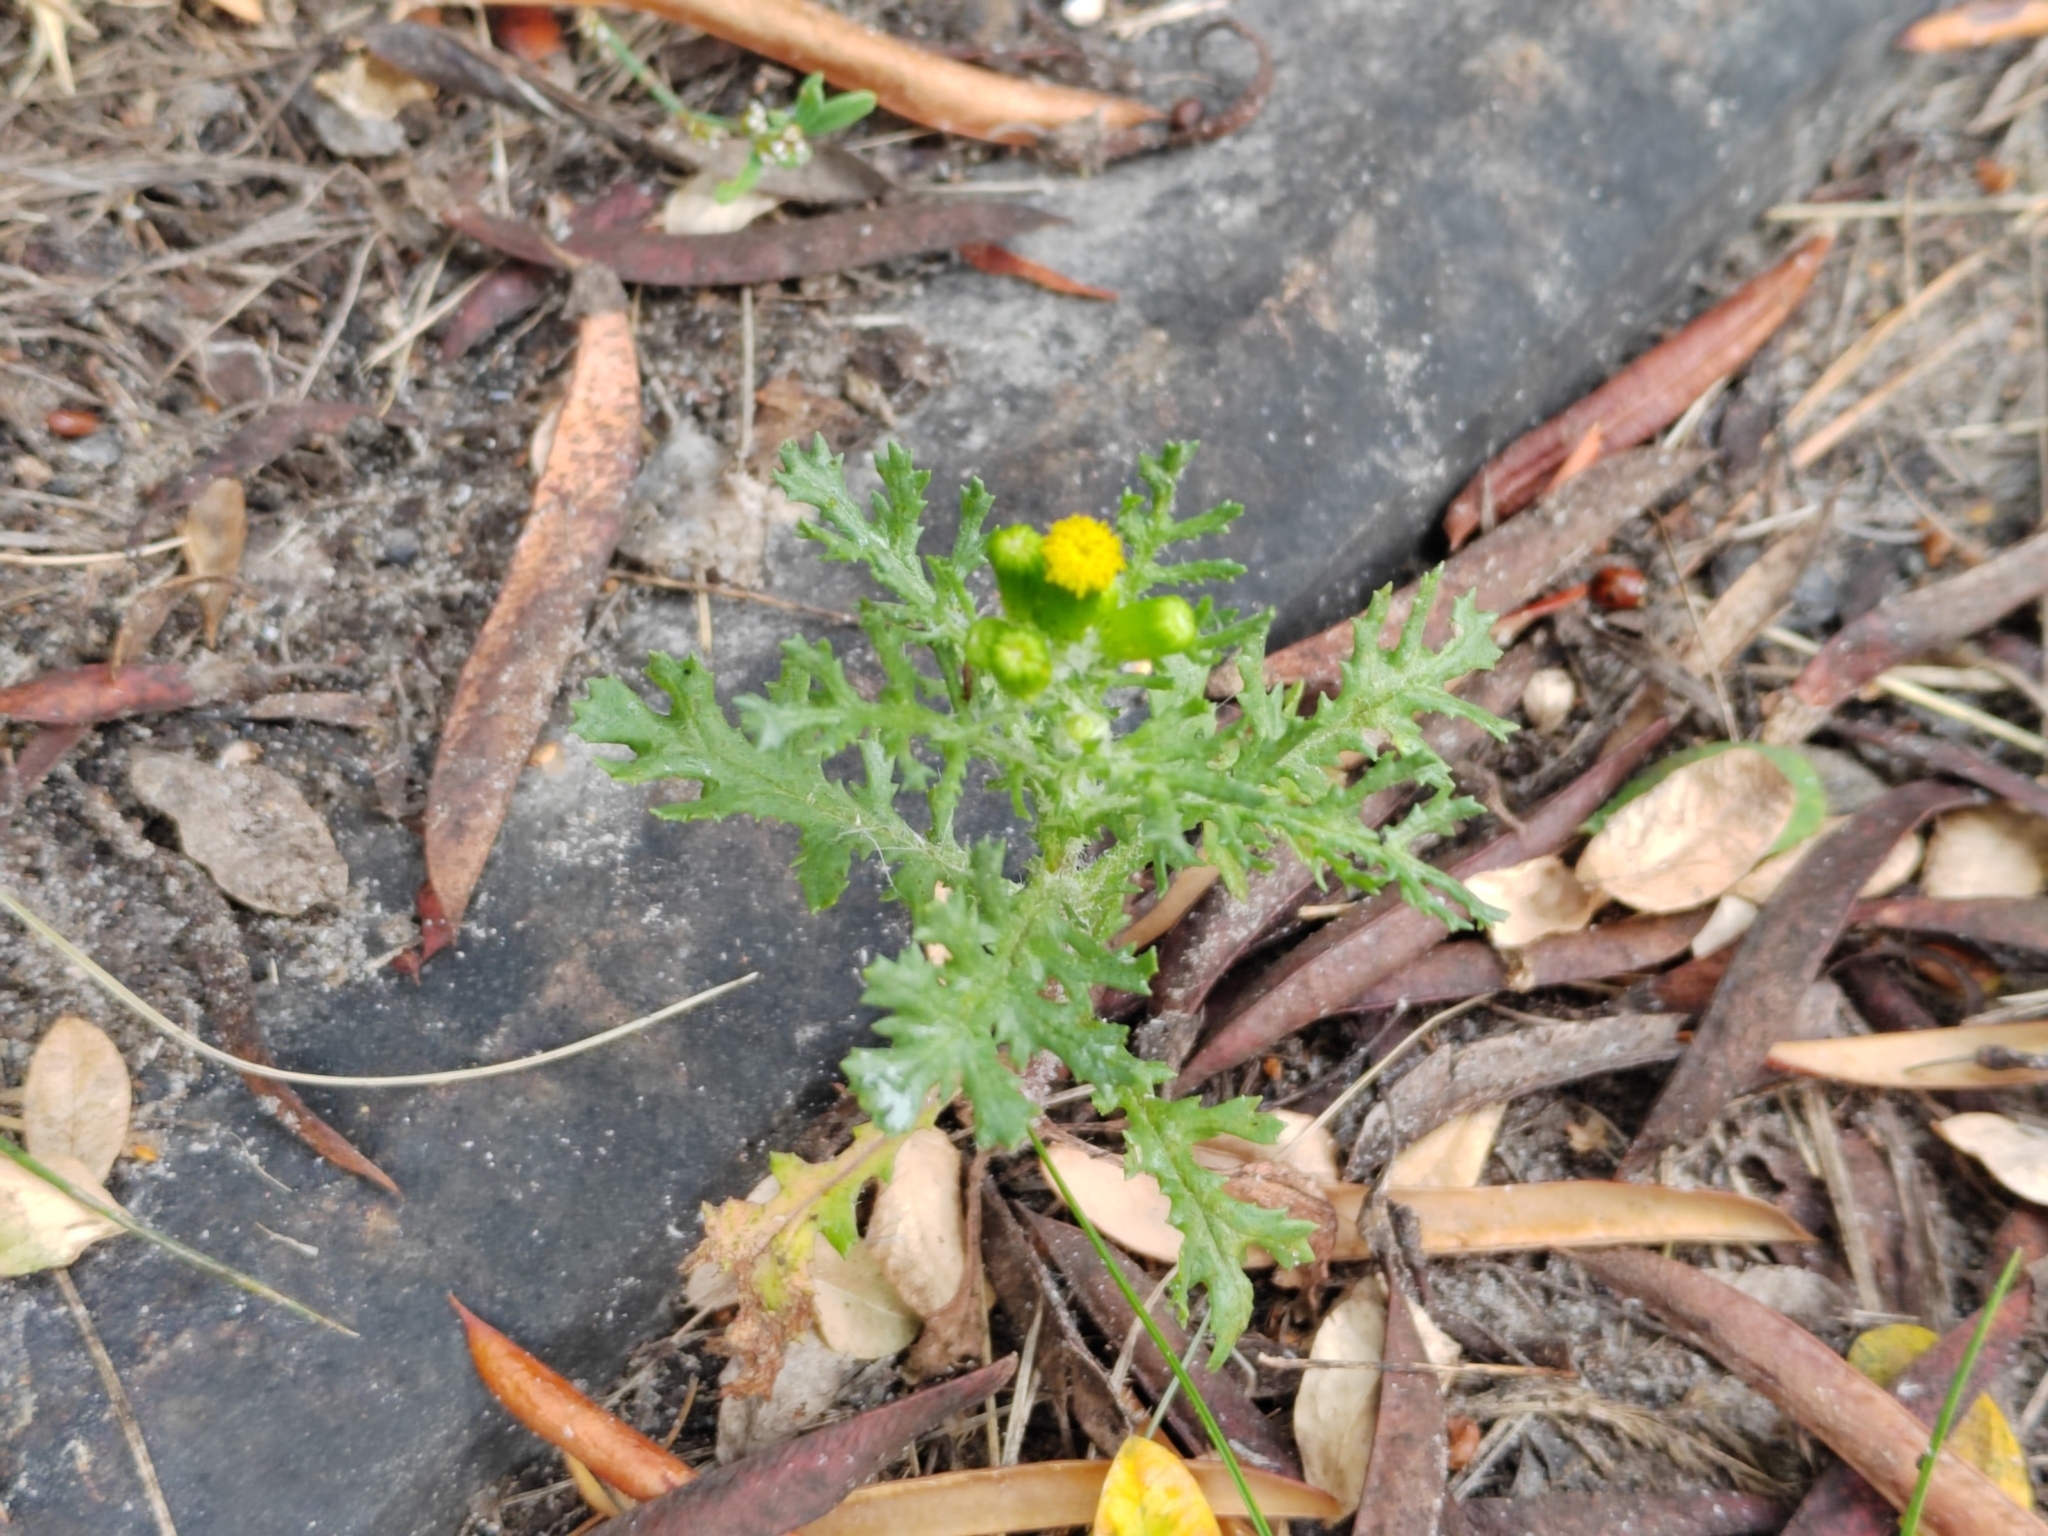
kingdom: Plantae
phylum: Tracheophyta
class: Magnoliopsida
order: Asterales
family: Asteraceae
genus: Senecio
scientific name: Senecio vulgaris
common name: Old-man-in-the-spring
